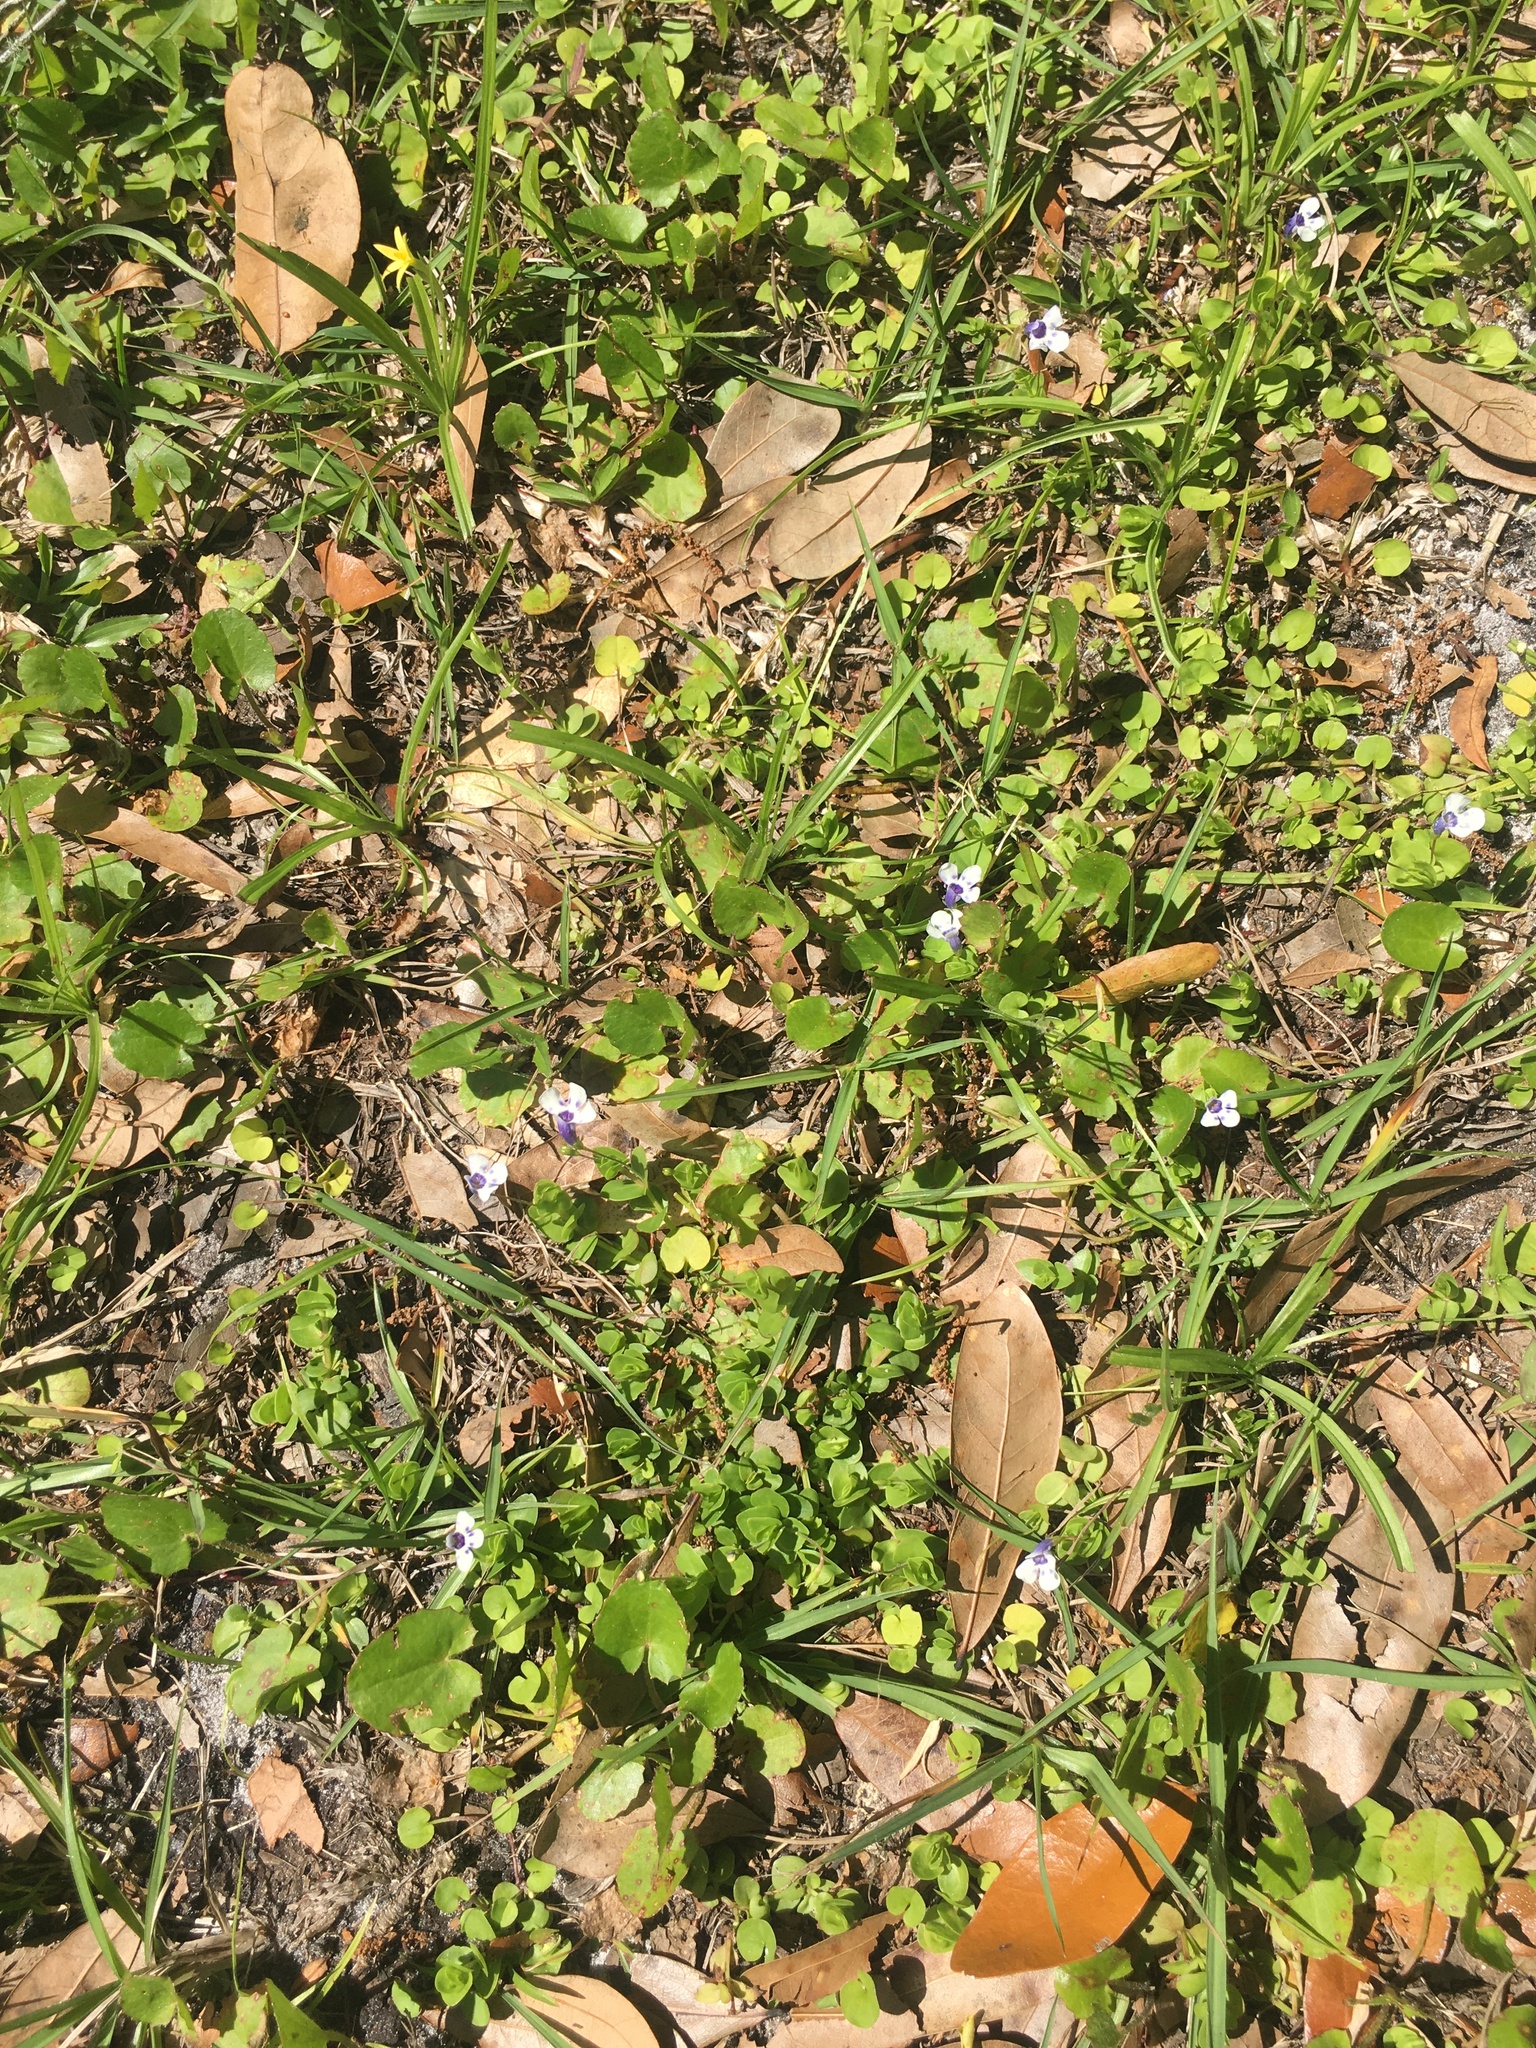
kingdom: Plantae
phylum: Tracheophyta
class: Magnoliopsida
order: Lamiales
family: Linderniaceae
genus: Lindernia
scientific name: Lindernia grandiflora
